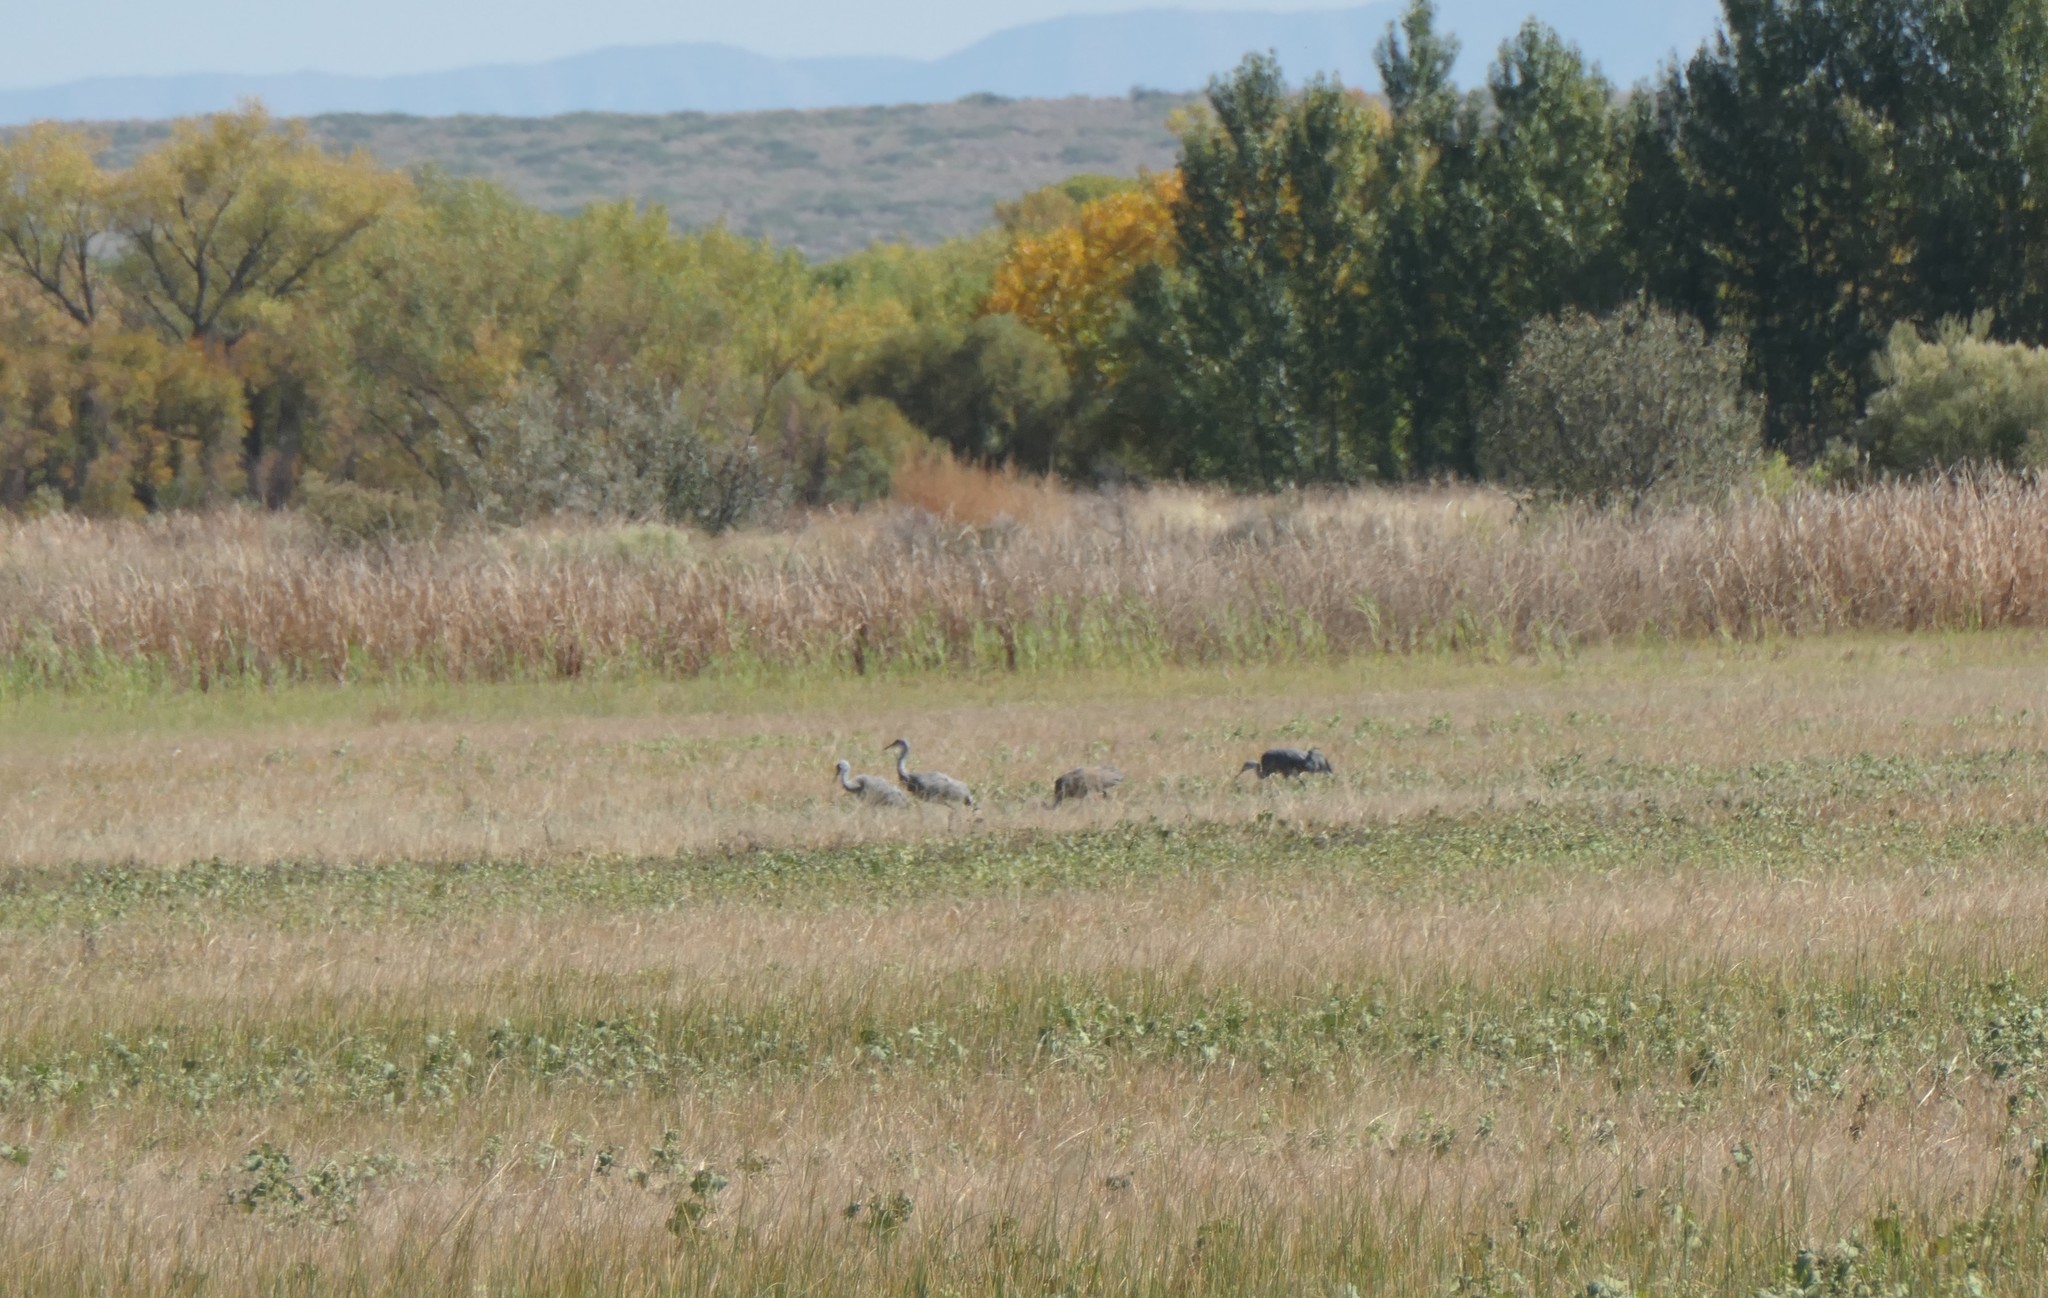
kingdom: Animalia
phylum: Chordata
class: Aves
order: Gruiformes
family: Gruidae
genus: Grus
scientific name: Grus canadensis
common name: Sandhill crane
